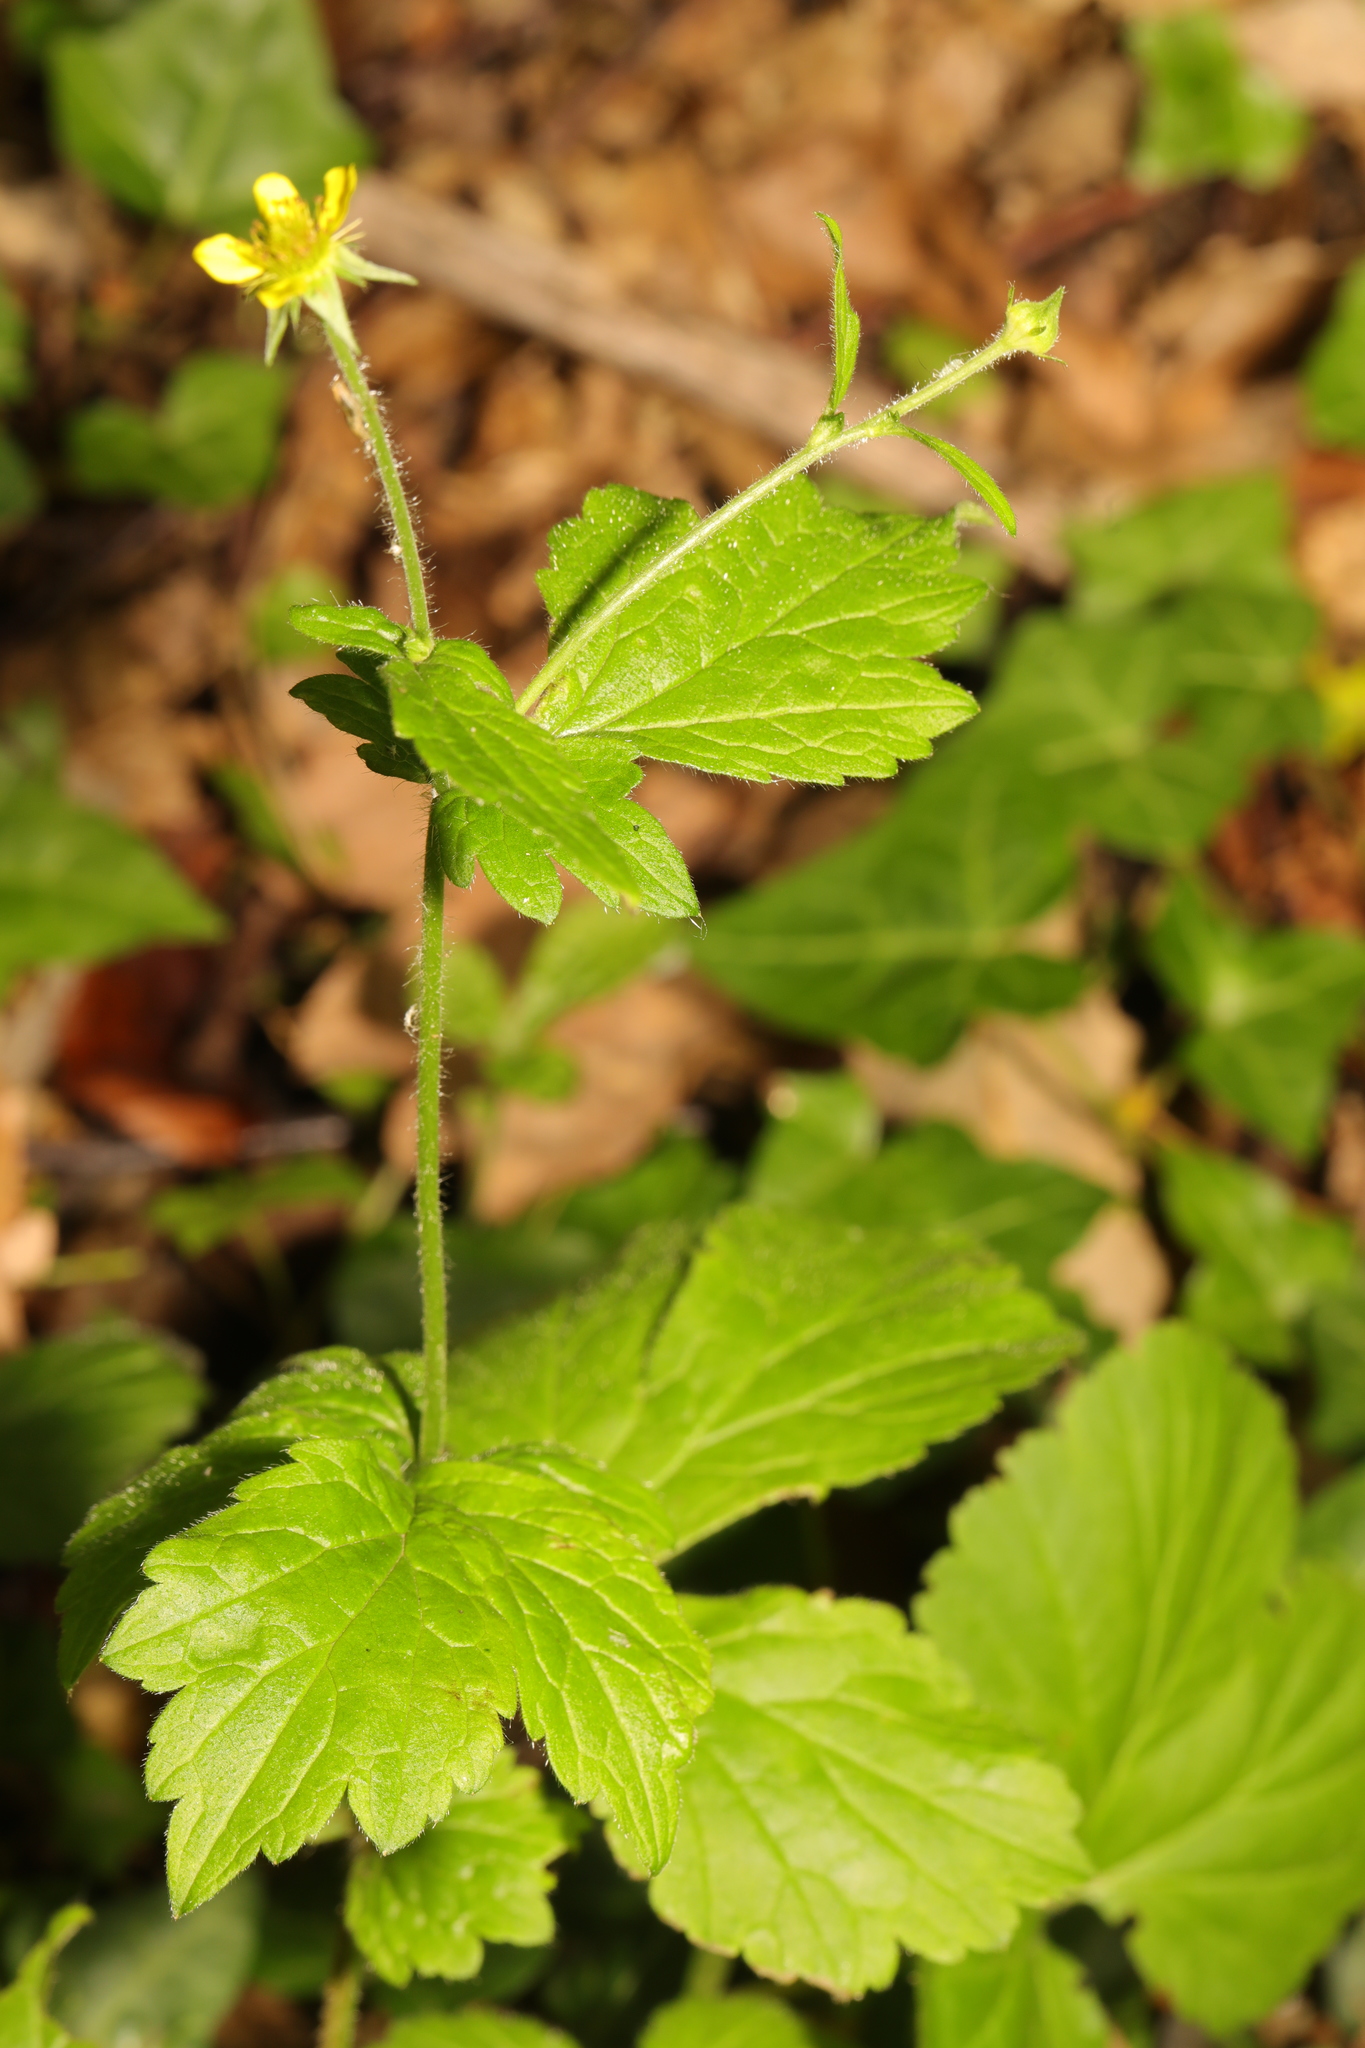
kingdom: Plantae
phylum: Tracheophyta
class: Magnoliopsida
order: Rosales
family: Rosaceae
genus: Geum
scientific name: Geum urbanum
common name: Wood avens
